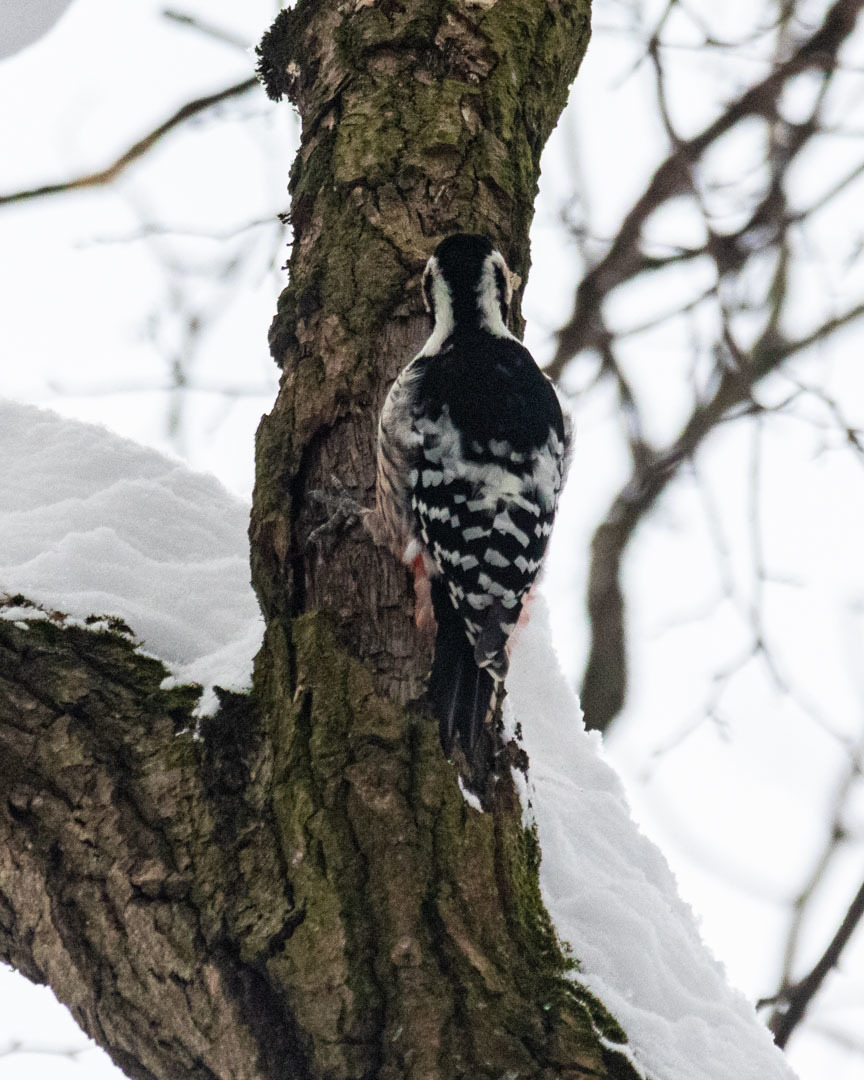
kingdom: Animalia
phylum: Chordata
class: Aves
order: Piciformes
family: Picidae
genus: Dendrocopos
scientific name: Dendrocopos leucotos
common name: White-backed woodpecker
